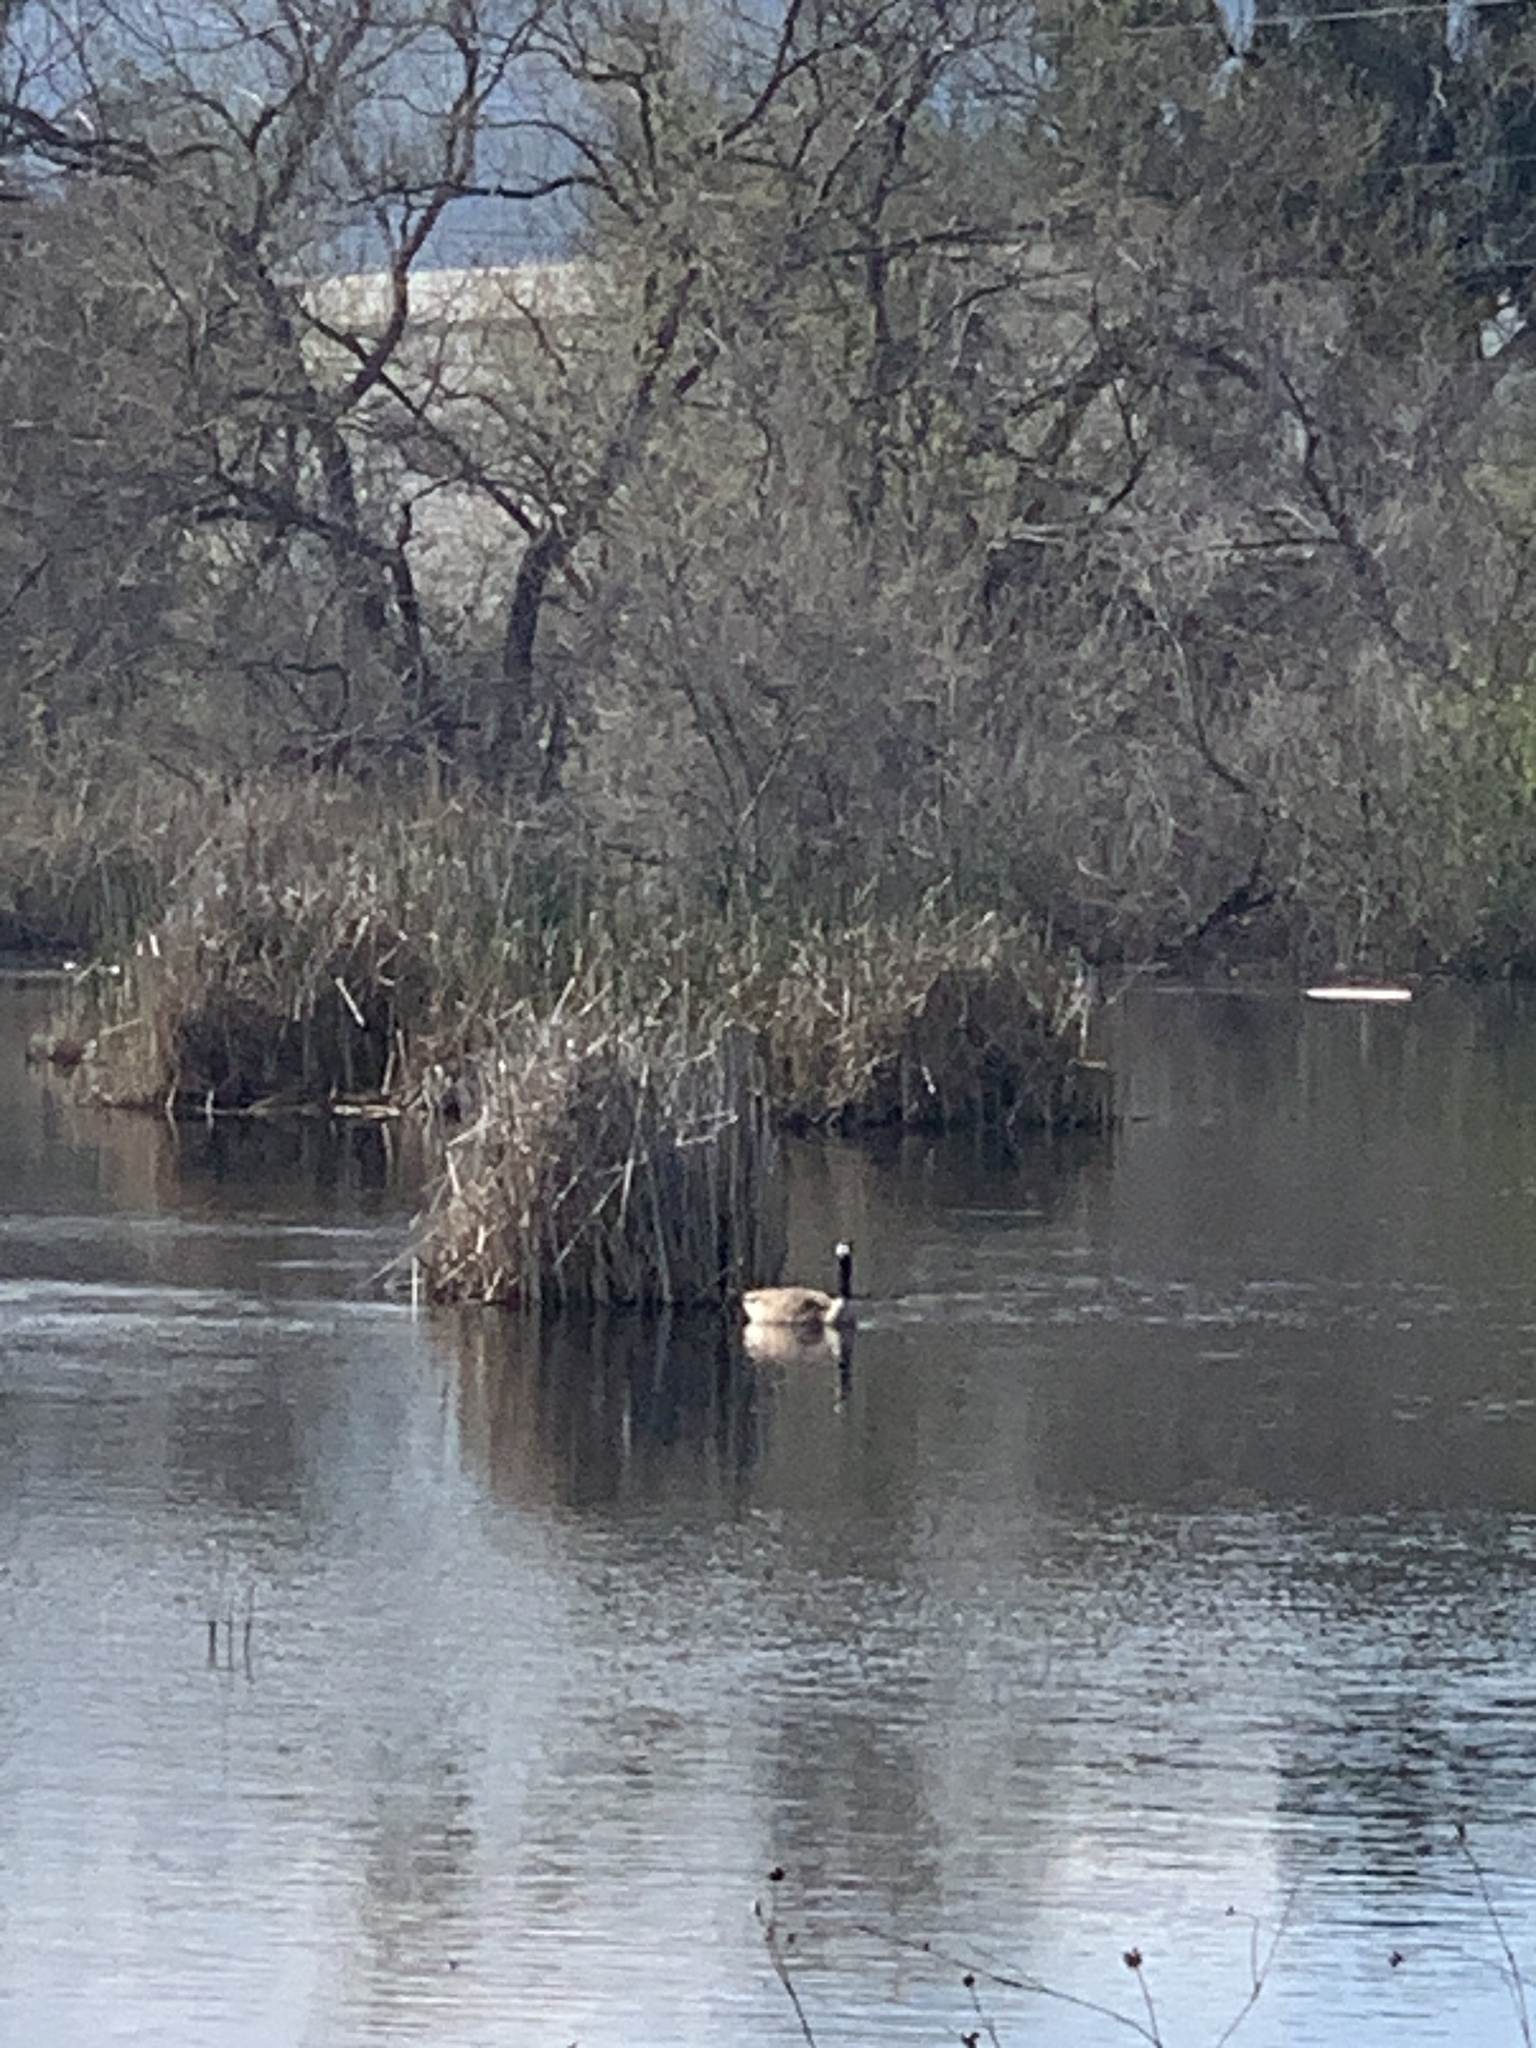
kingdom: Animalia
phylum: Chordata
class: Aves
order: Anseriformes
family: Anatidae
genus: Branta
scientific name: Branta canadensis
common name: Canada goose
